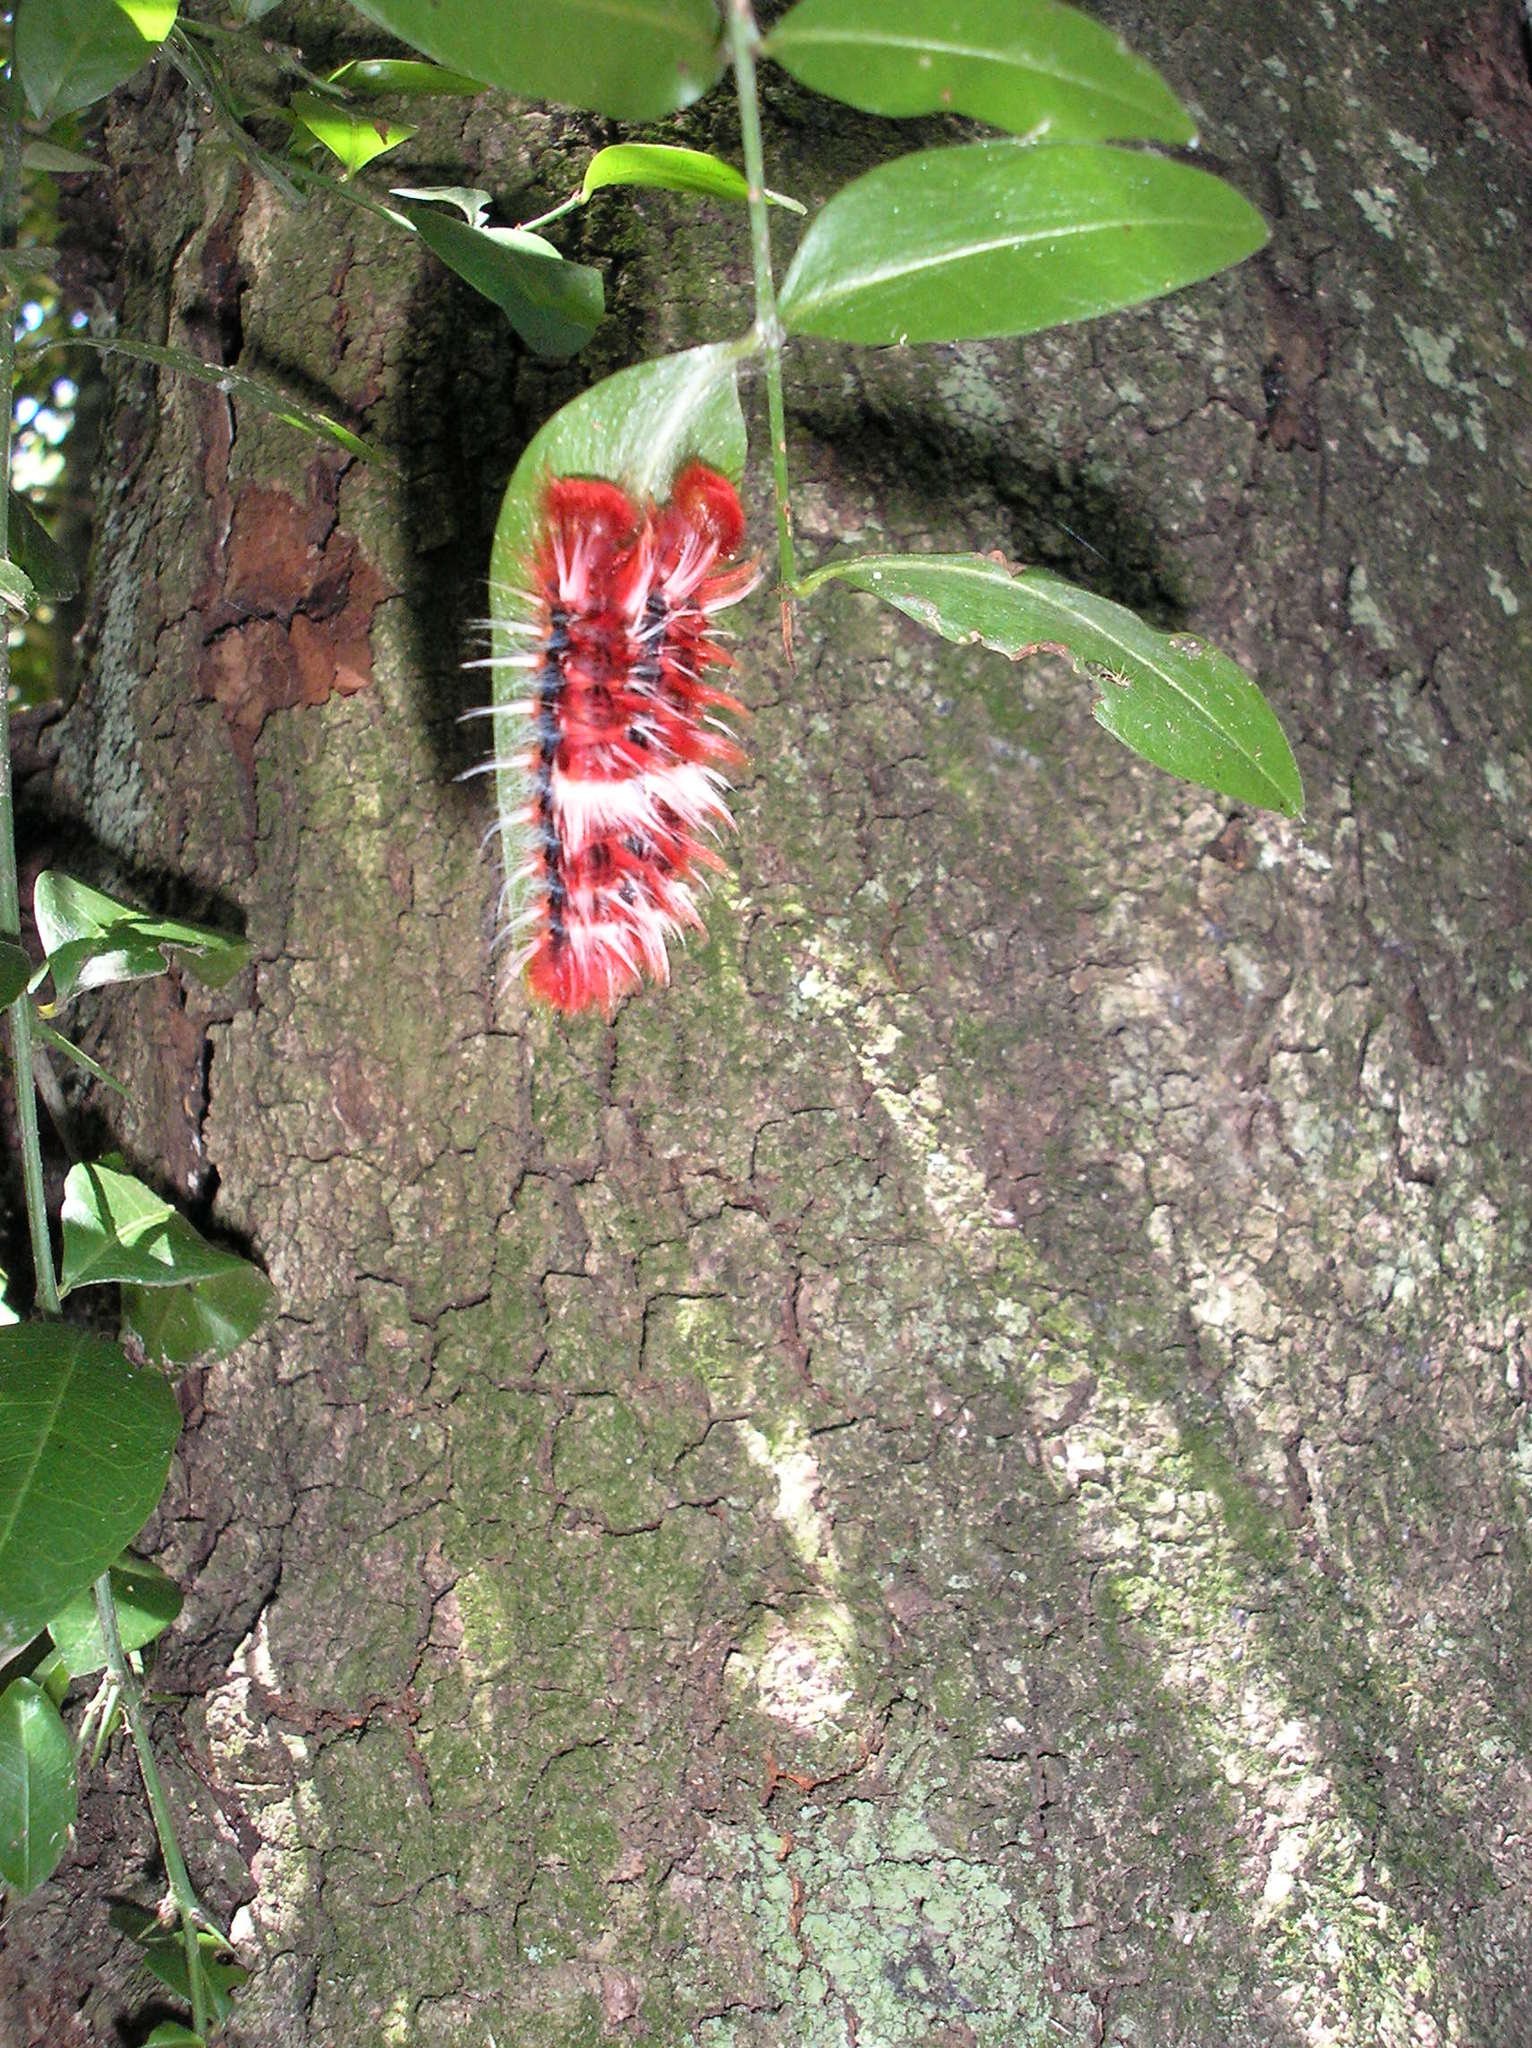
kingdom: Animalia
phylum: Arthropoda
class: Insecta
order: Lepidoptera
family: Nymphalidae
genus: Morpho
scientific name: Morpho epistrophus
